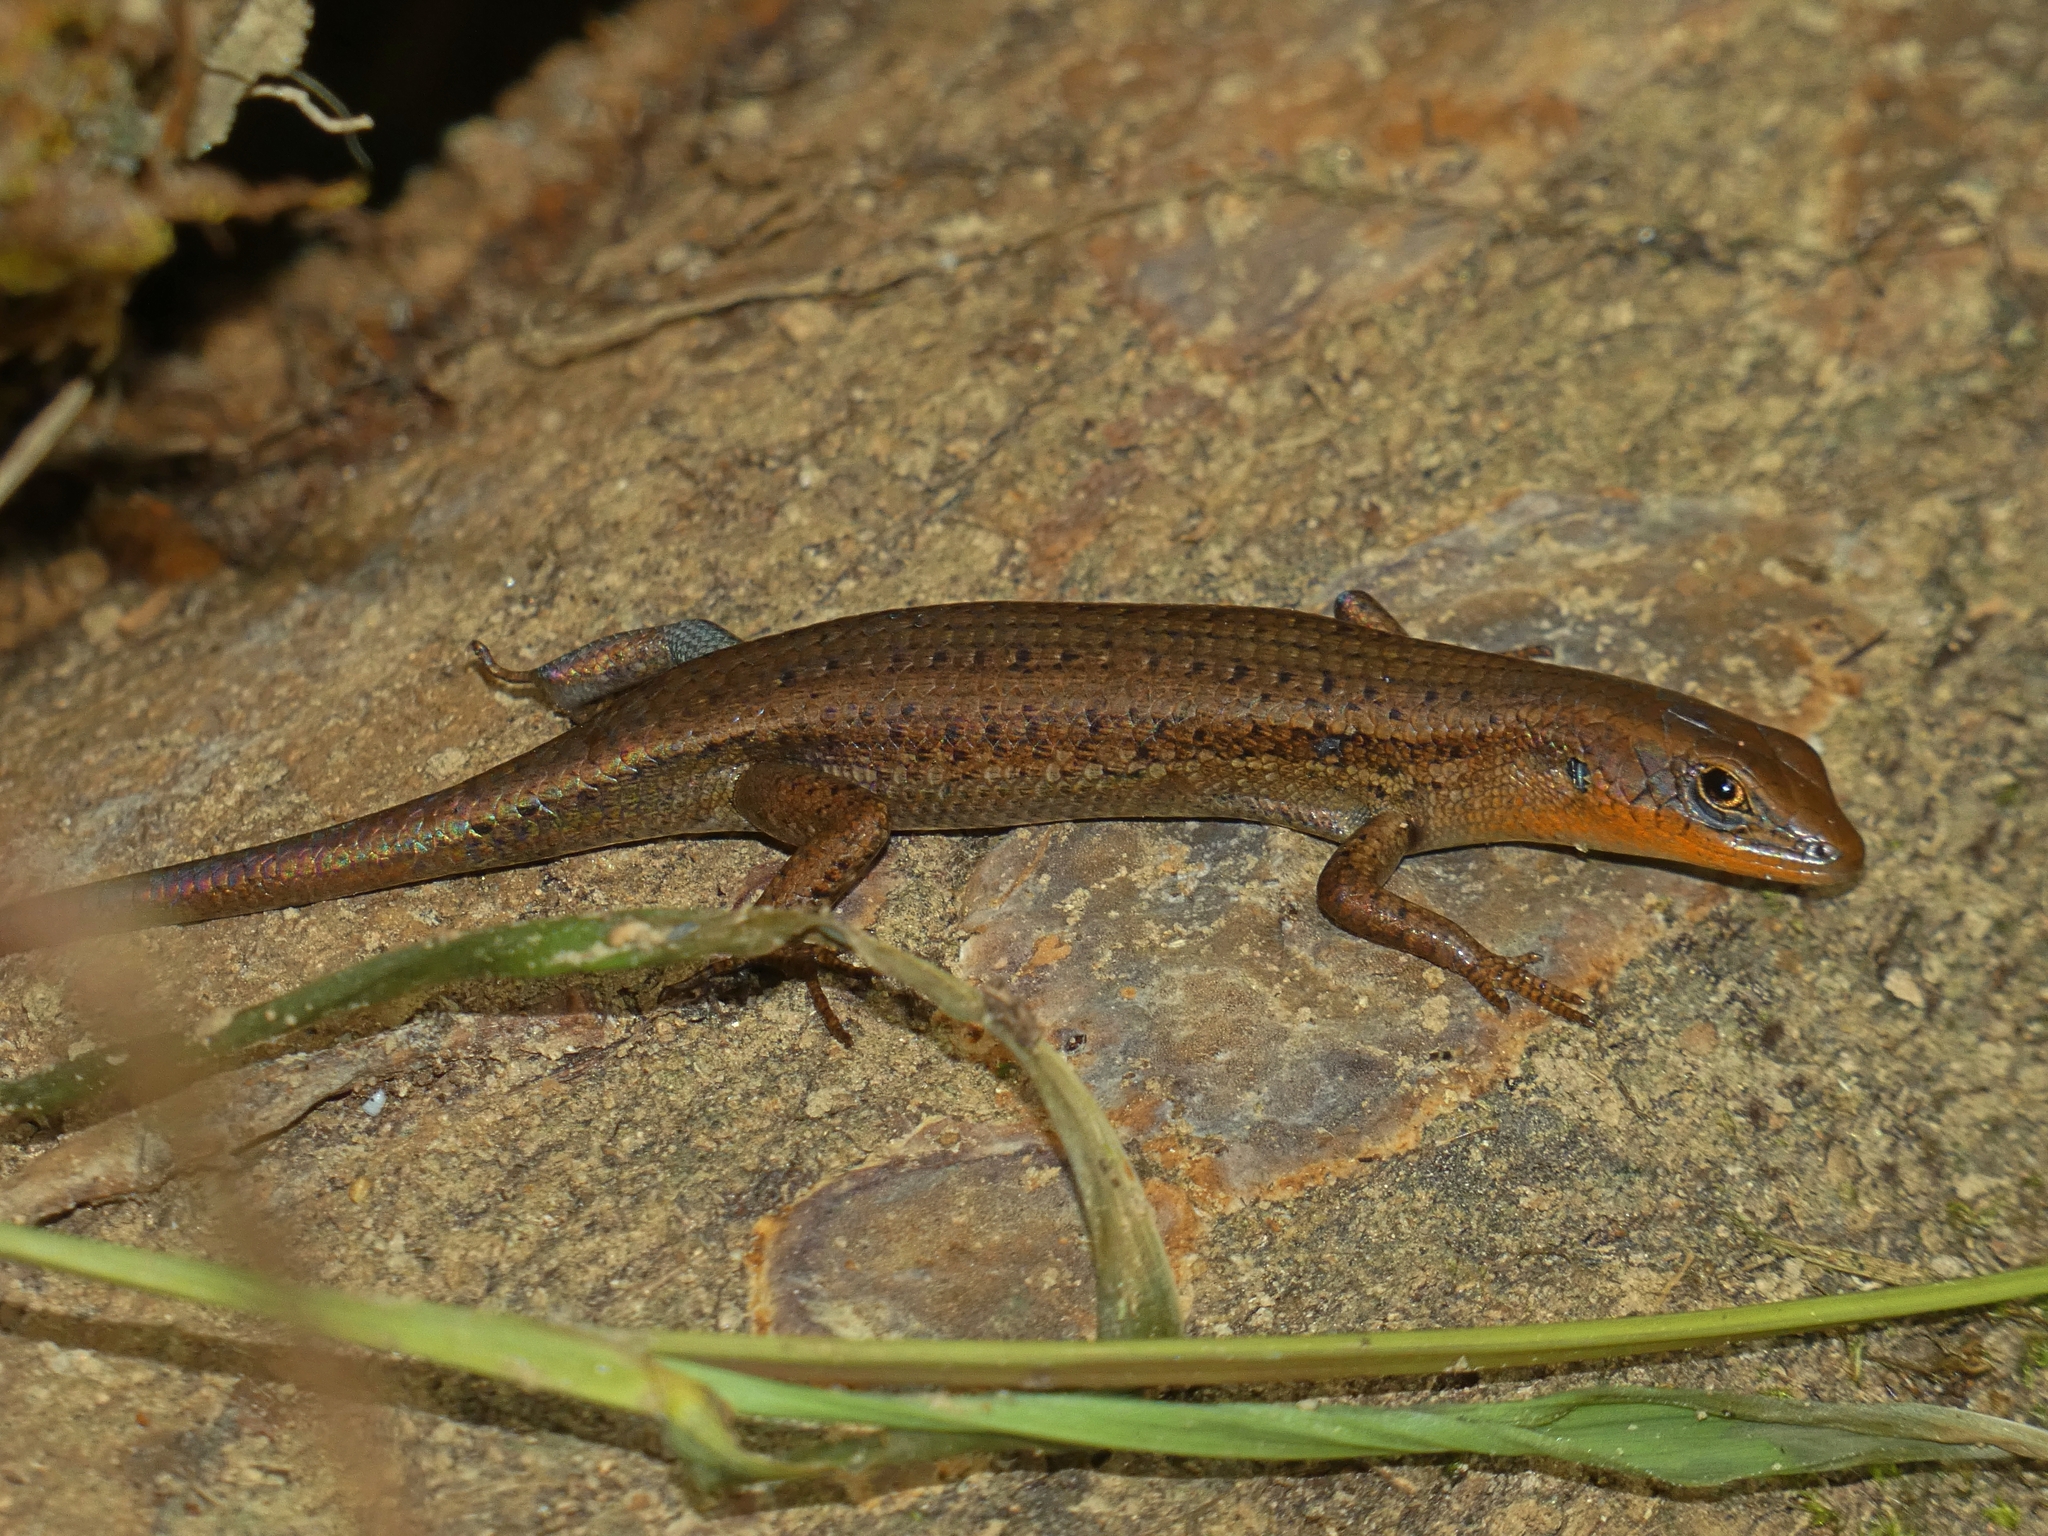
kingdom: Animalia
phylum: Chordata
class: Squamata
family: Scincidae
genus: Carlia
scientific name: Carlia crypta
